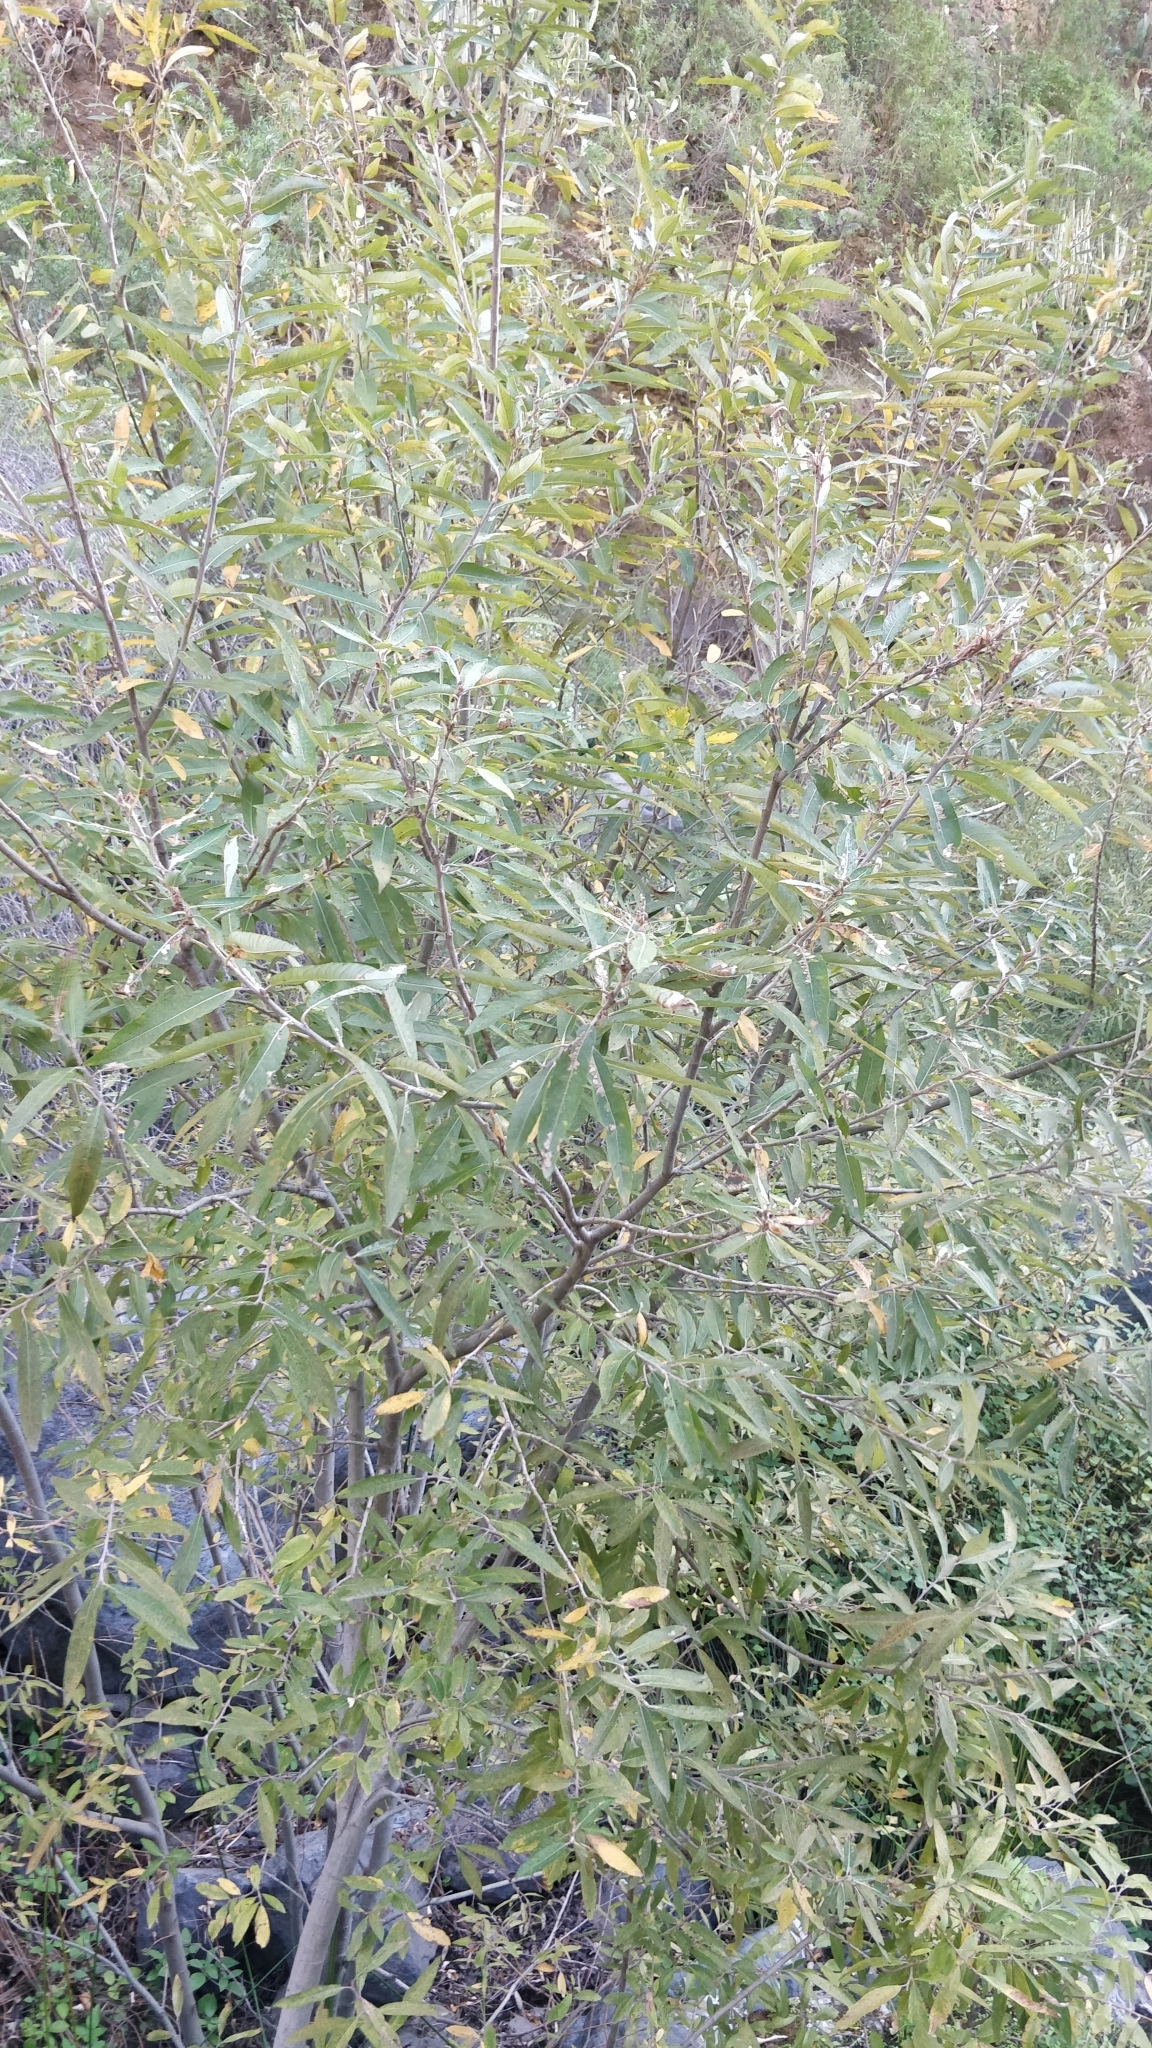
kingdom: Plantae
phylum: Tracheophyta
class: Magnoliopsida
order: Malpighiales
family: Salicaceae
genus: Salix
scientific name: Salix canariensis
